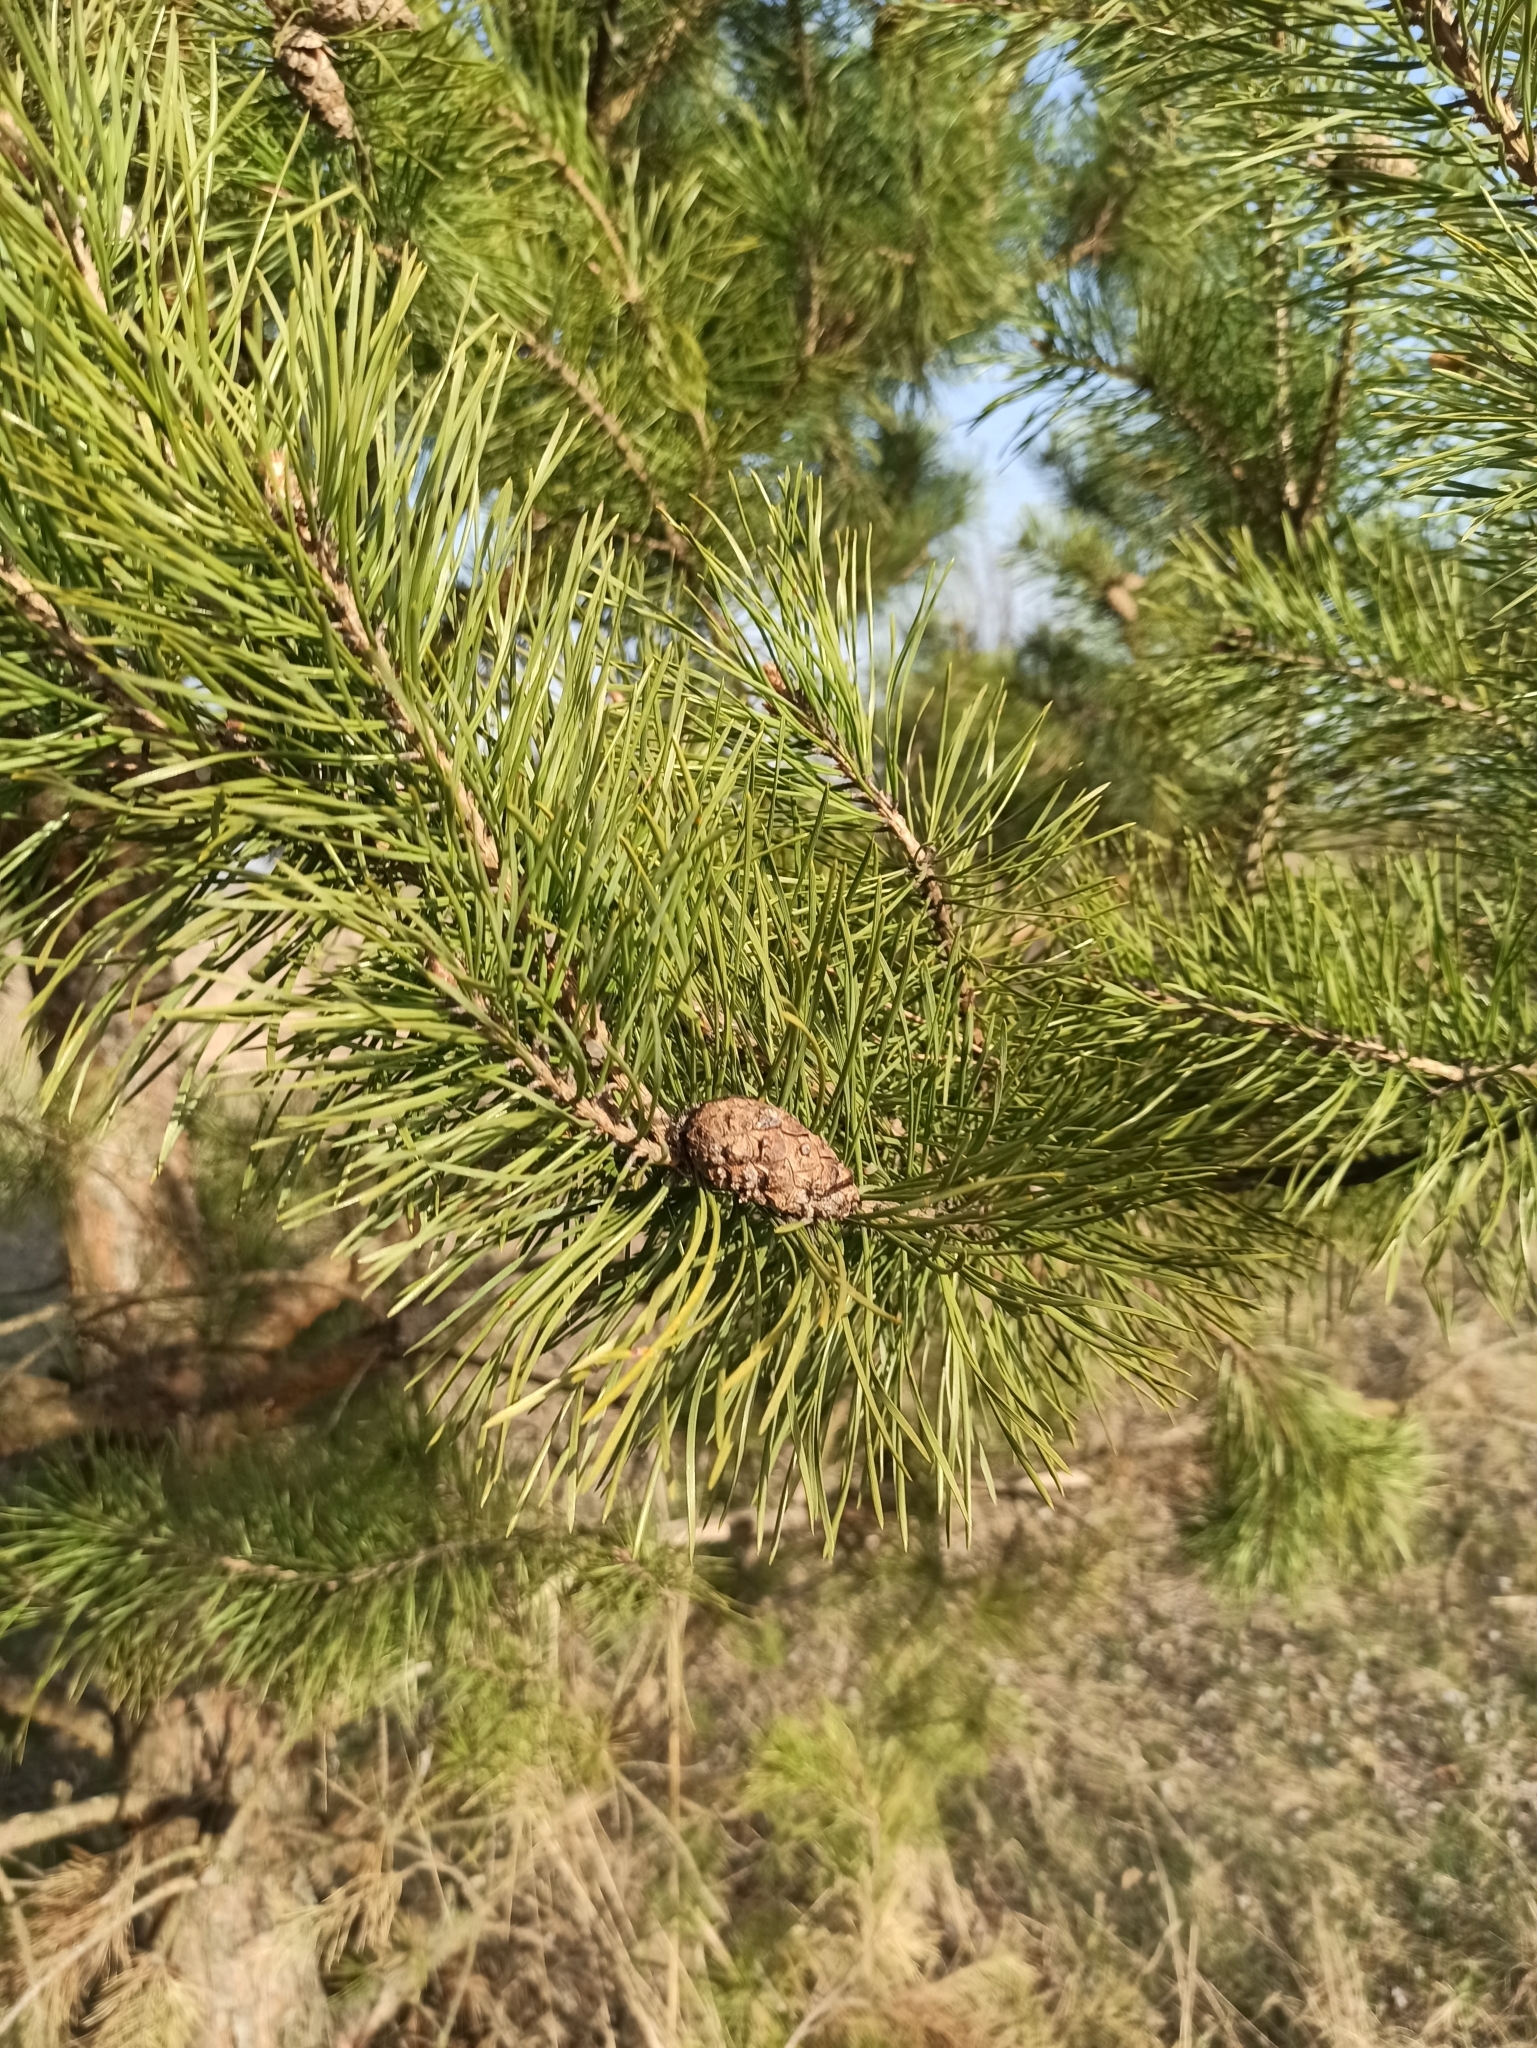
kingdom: Plantae
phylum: Tracheophyta
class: Pinopsida
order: Pinales
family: Pinaceae
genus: Pinus
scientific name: Pinus sylvestris
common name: Scots pine
